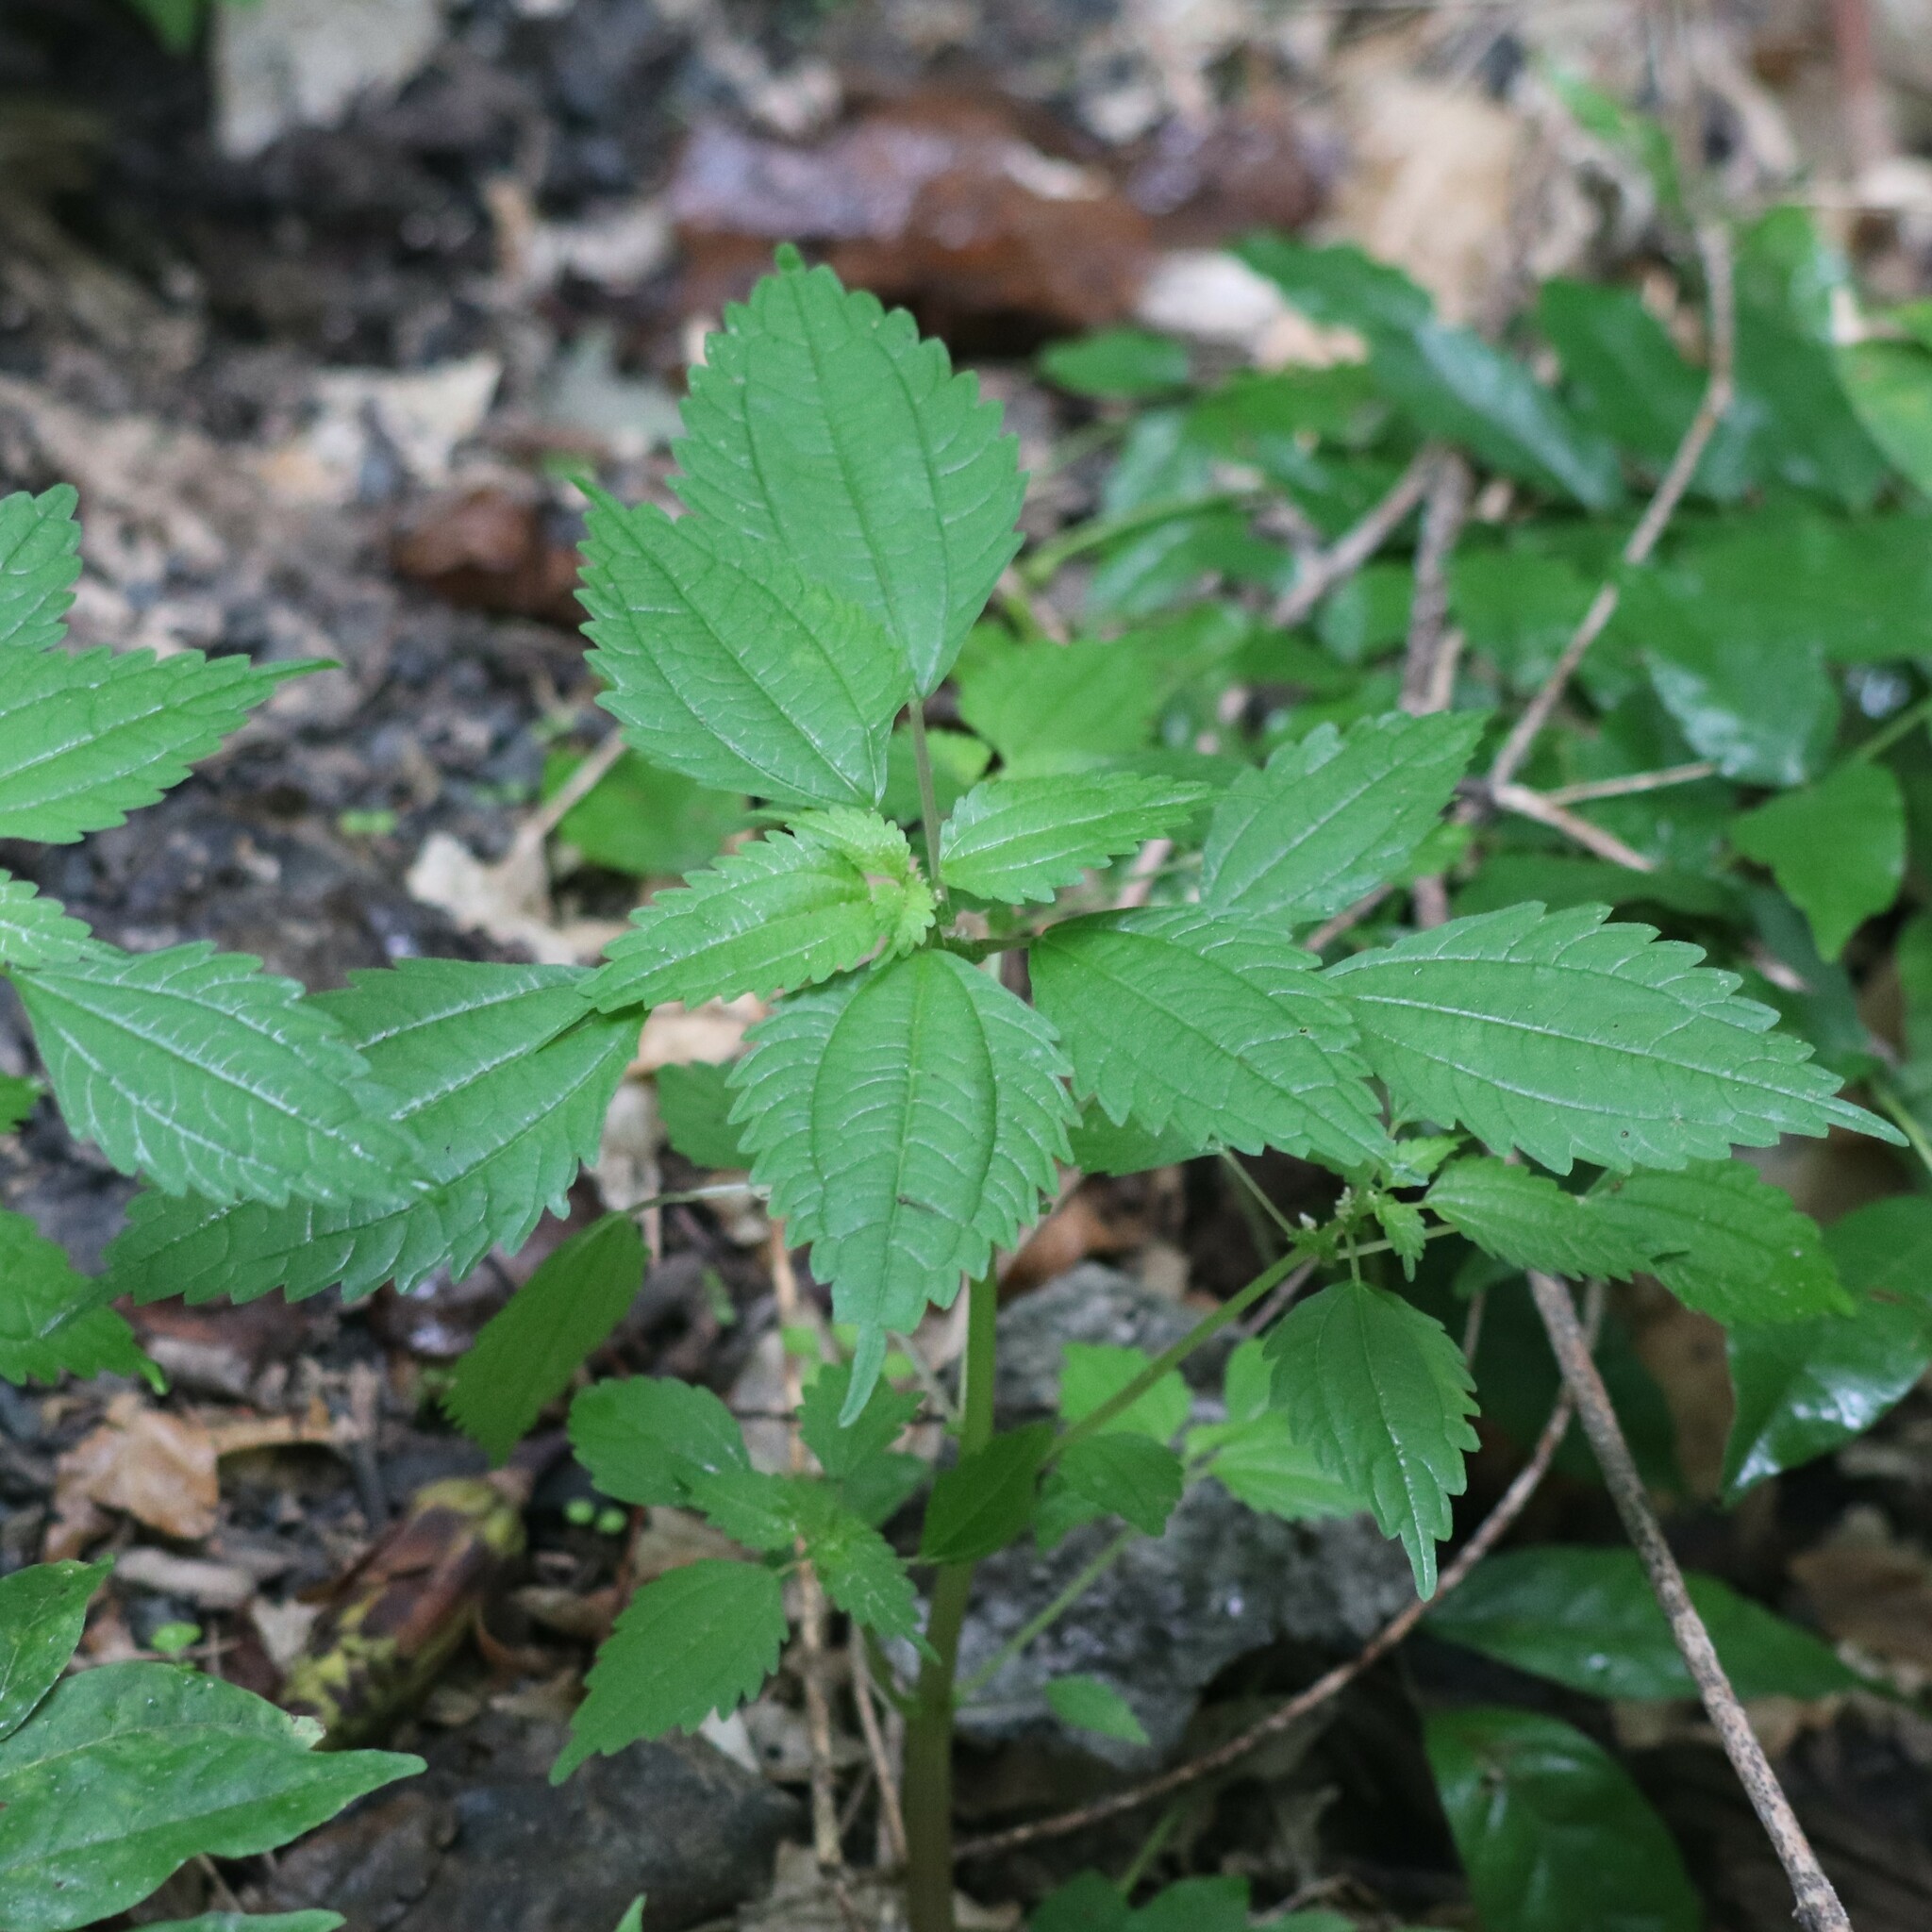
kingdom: Plantae
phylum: Tracheophyta
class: Magnoliopsida
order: Rosales
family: Urticaceae
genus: Pilea
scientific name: Pilea pumila
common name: Clearweed
